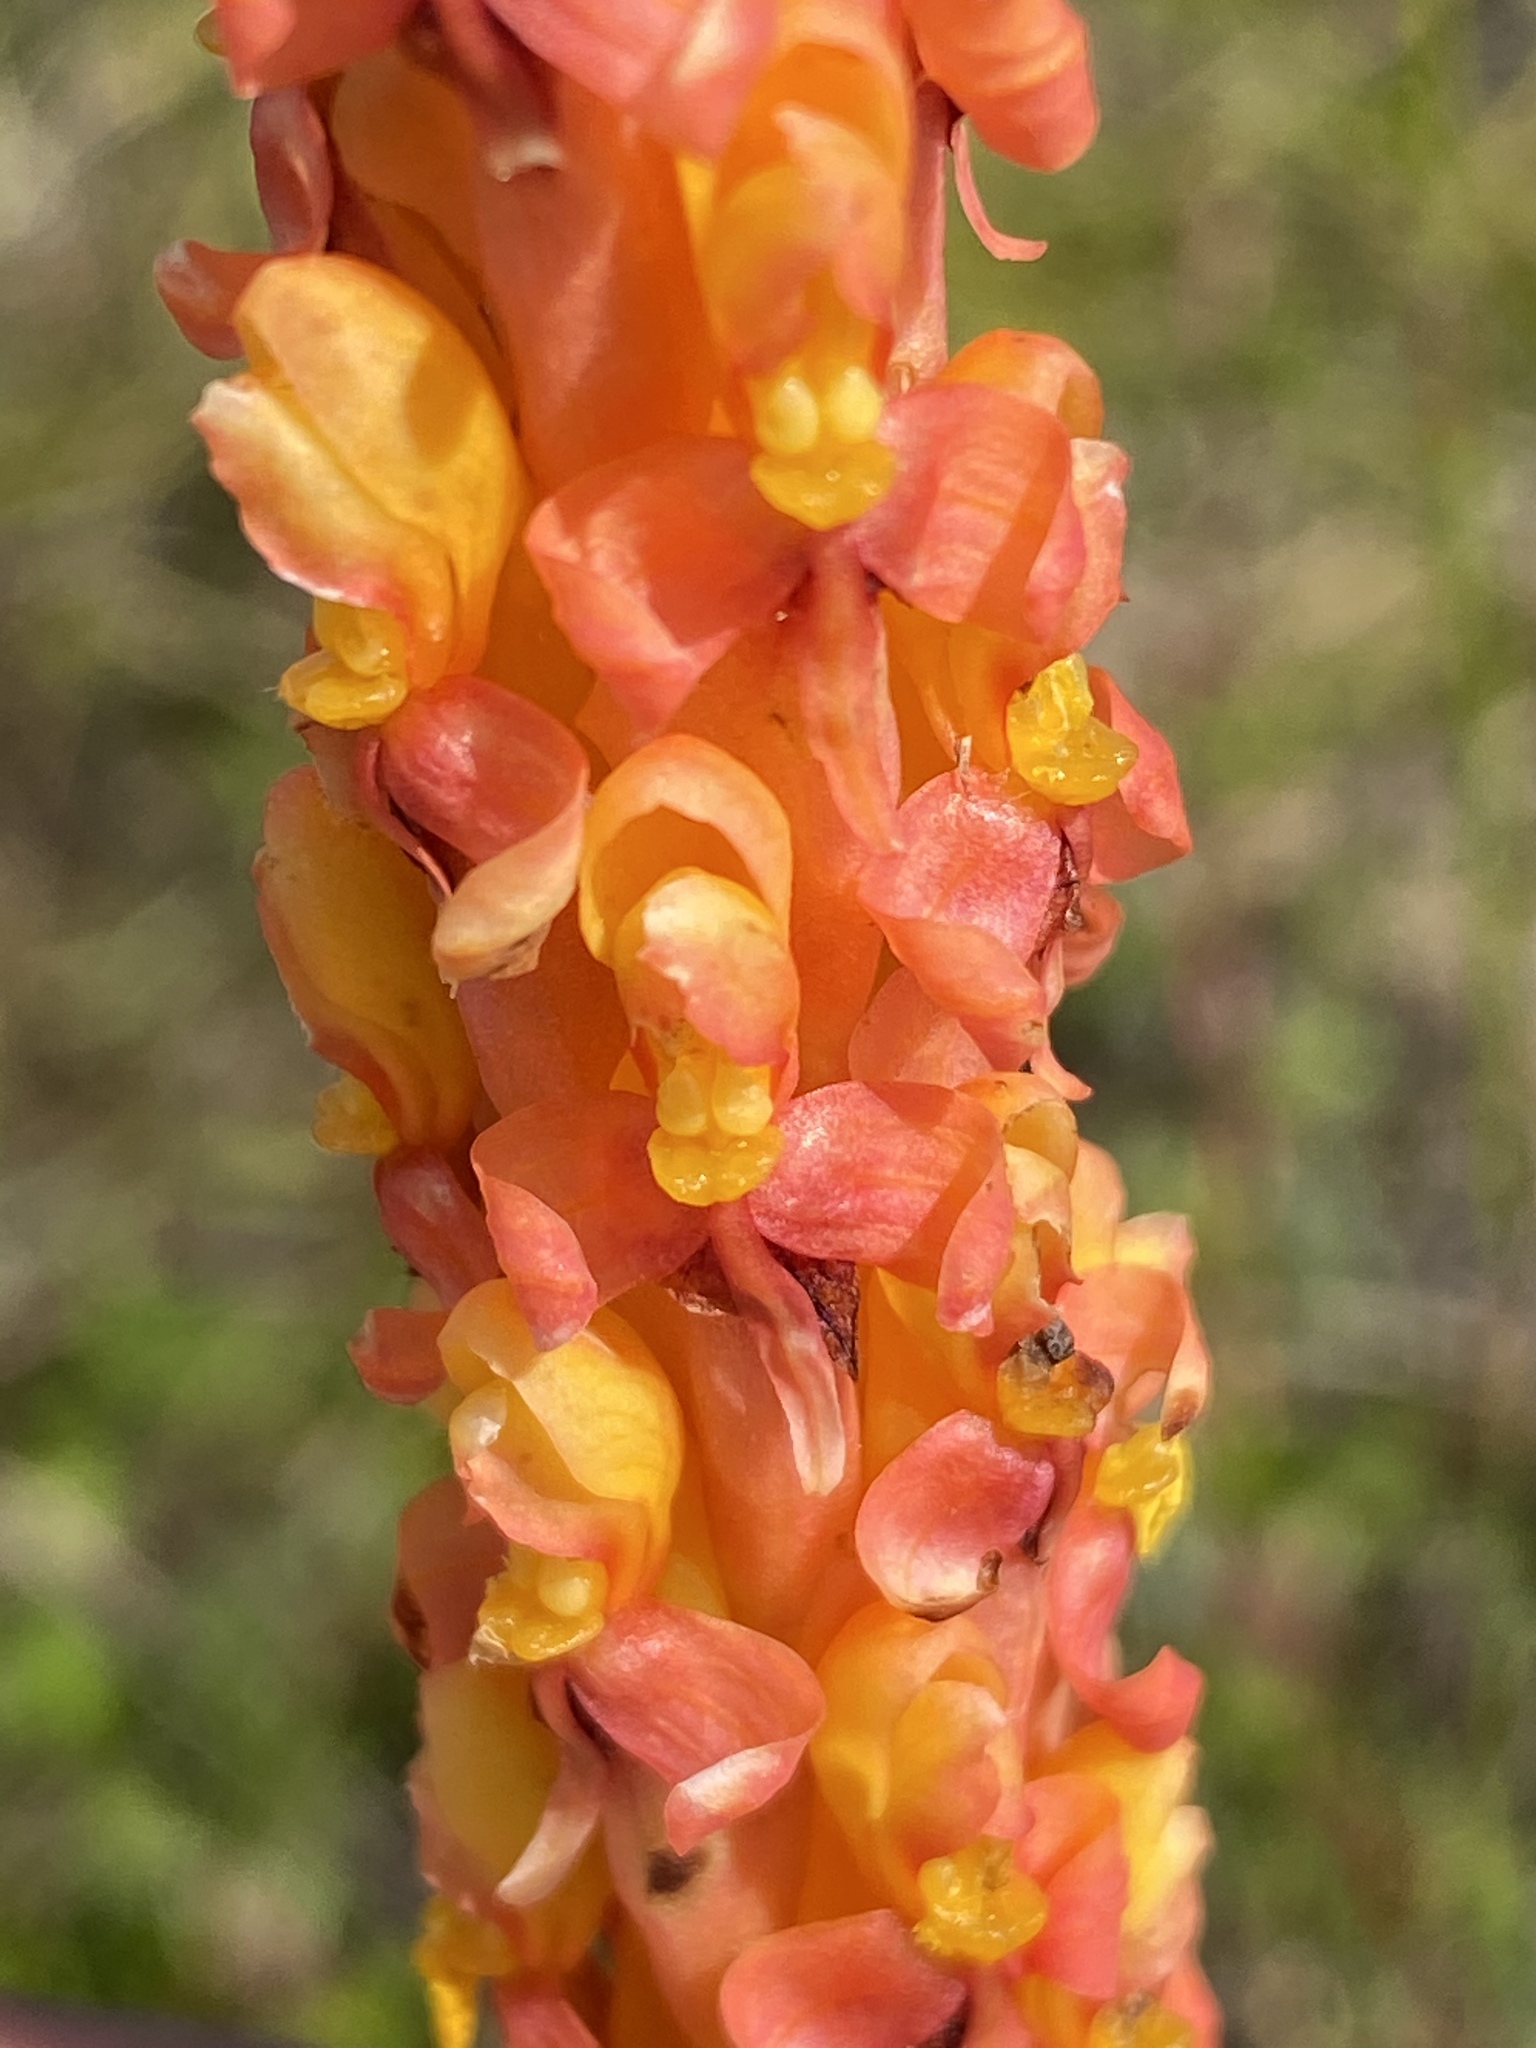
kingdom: Plantae
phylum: Tracheophyta
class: Liliopsida
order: Asparagales
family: Orchidaceae
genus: Disa
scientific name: Disa chrysostachya
